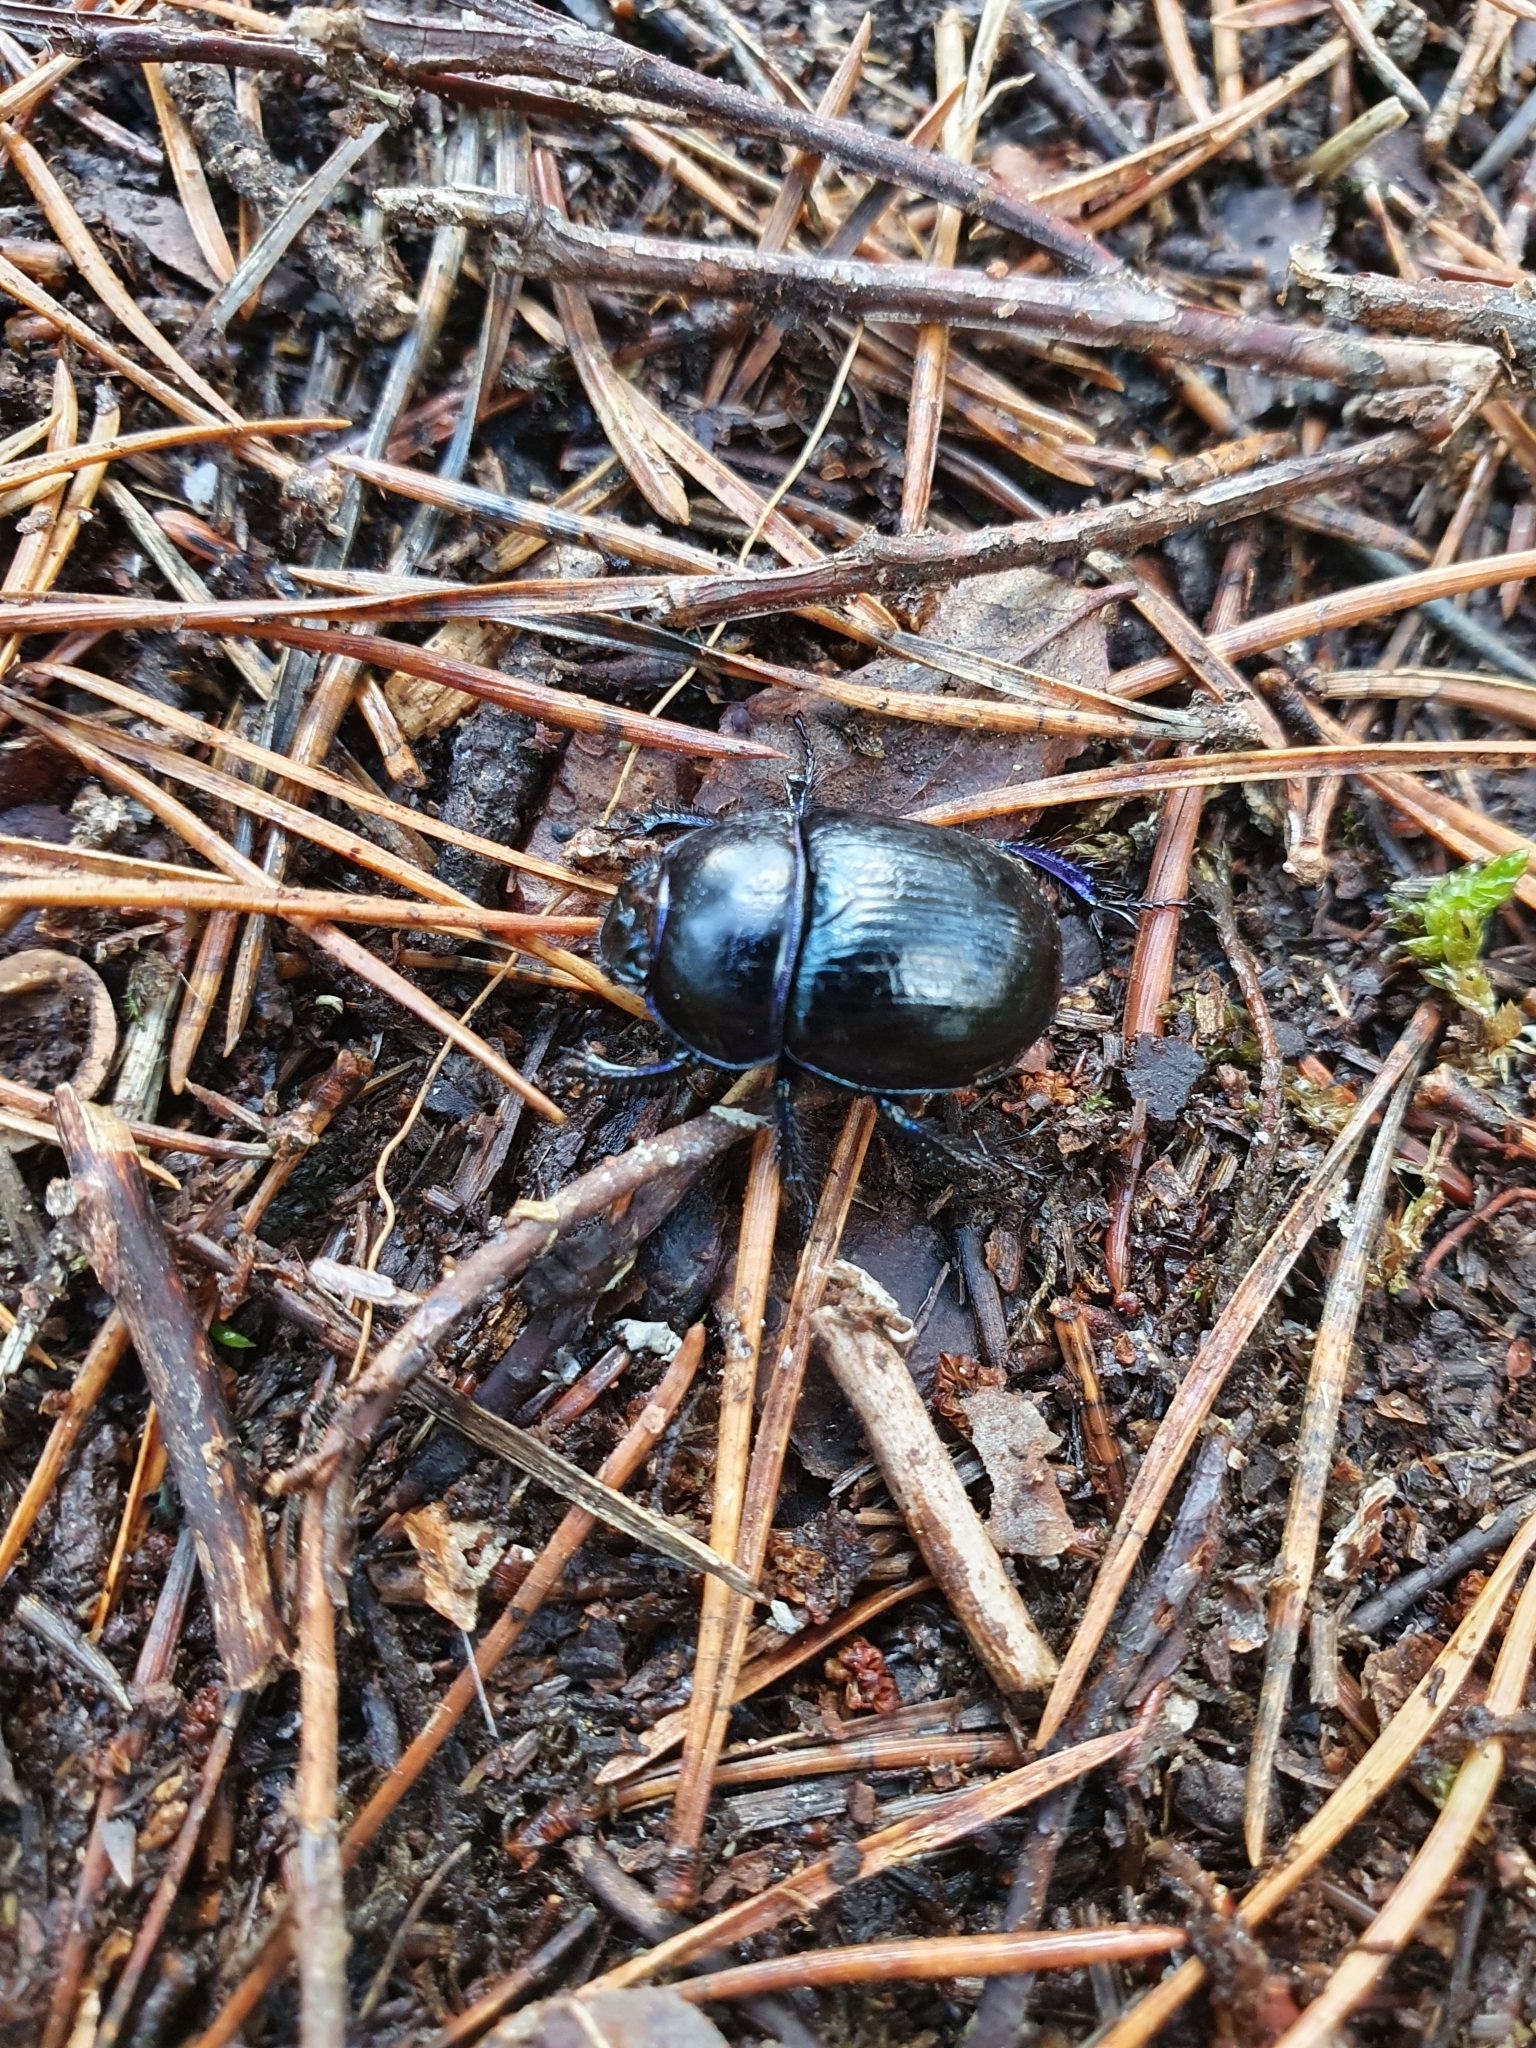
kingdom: Animalia
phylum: Arthropoda
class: Insecta
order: Coleoptera
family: Geotrupidae
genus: Anoplotrupes
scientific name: Anoplotrupes stercorosus
